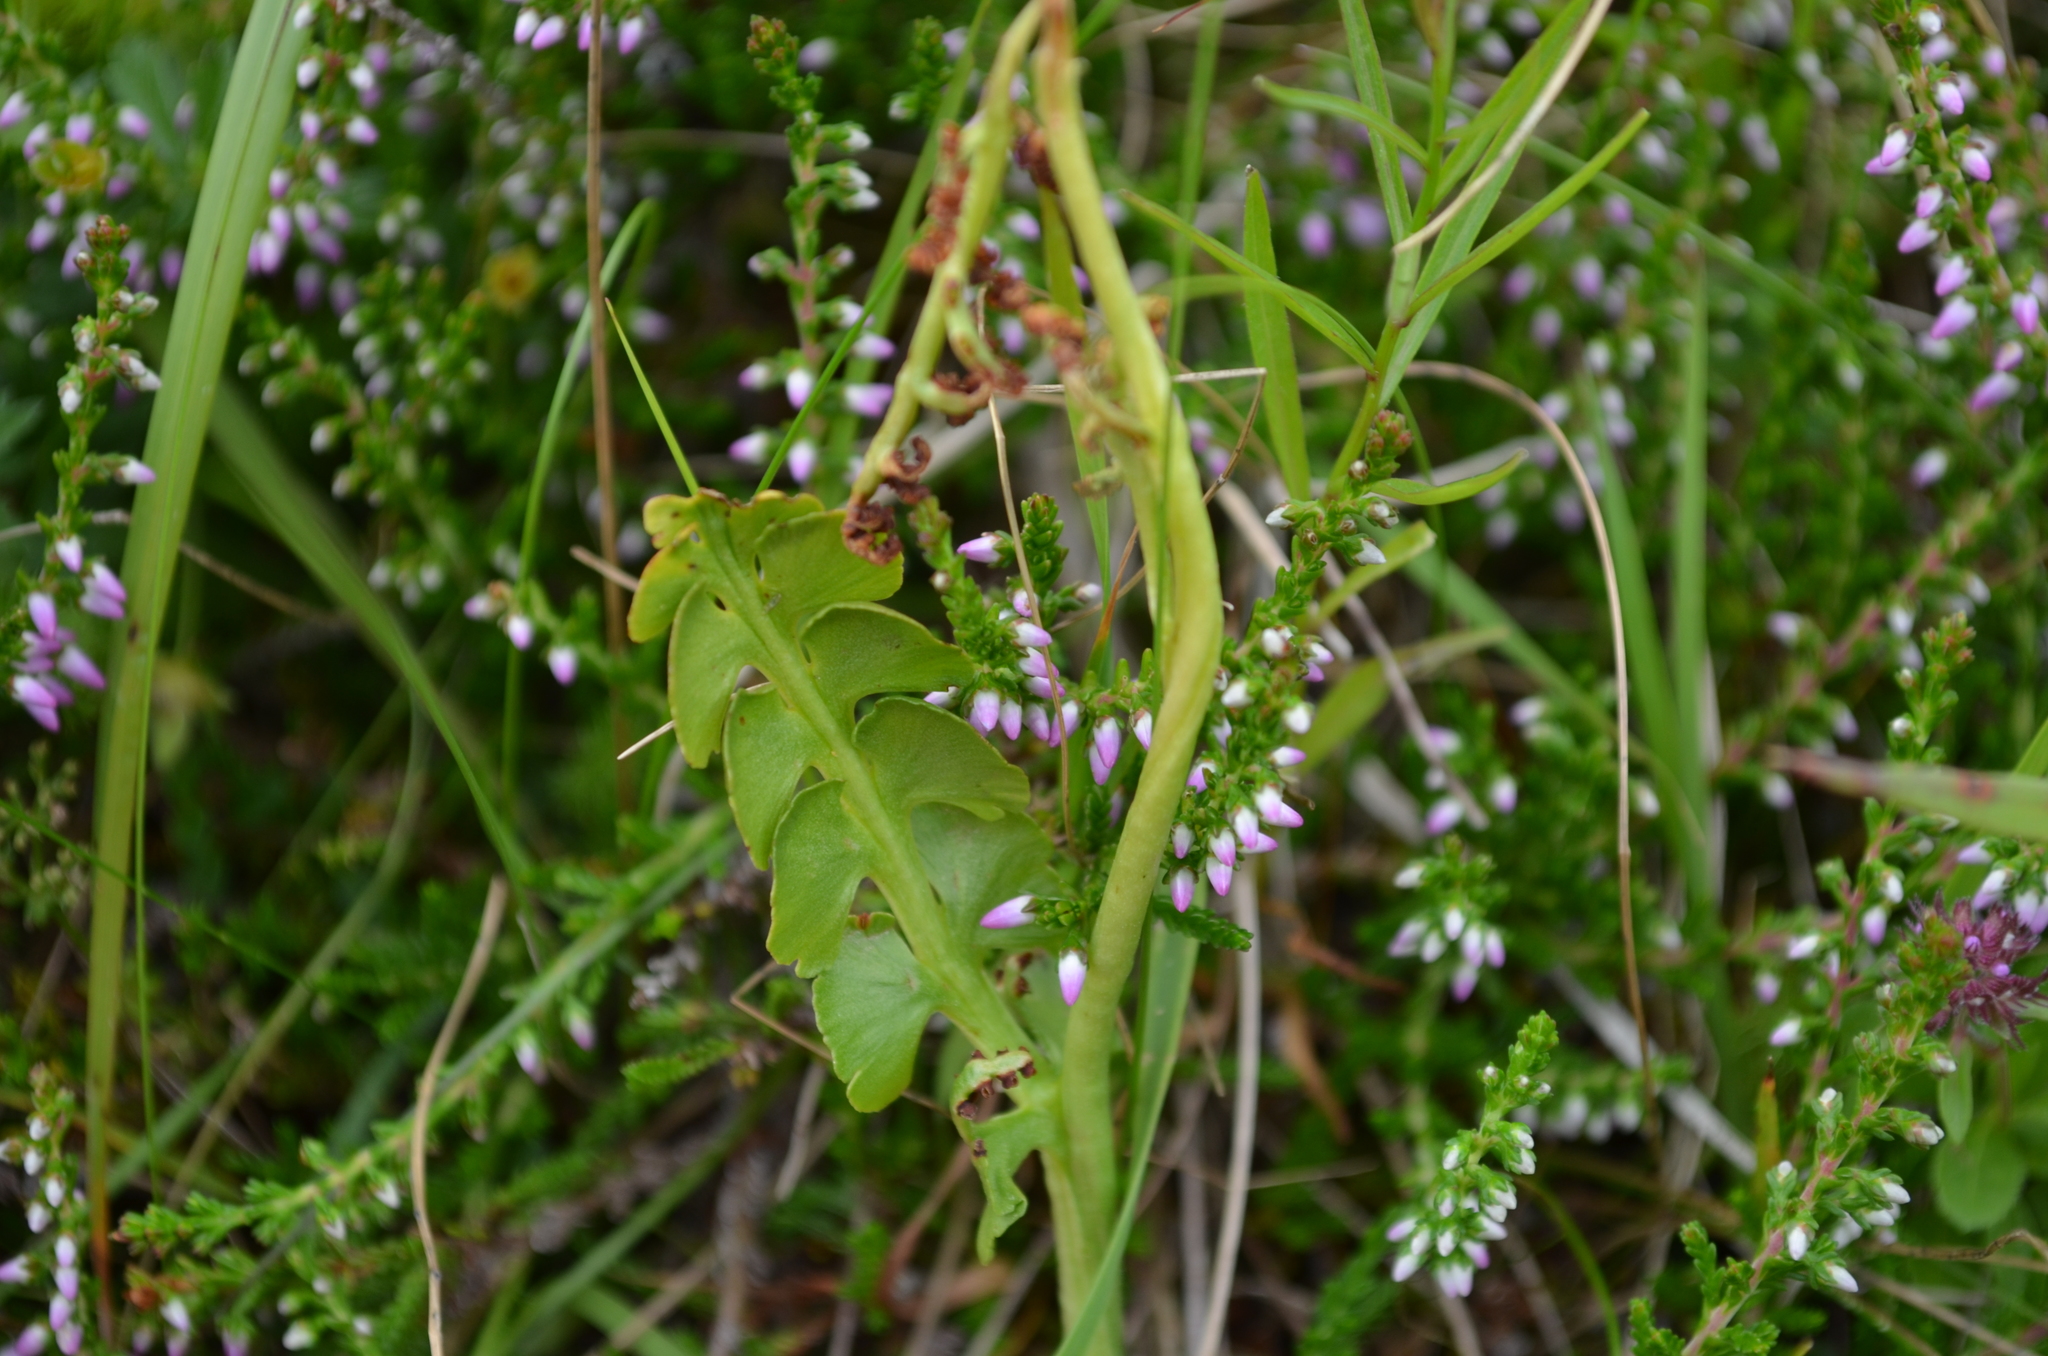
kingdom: Plantae
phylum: Tracheophyta
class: Polypodiopsida
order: Ophioglossales
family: Ophioglossaceae
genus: Botrychium
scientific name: Botrychium lunaria
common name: Moonwort
